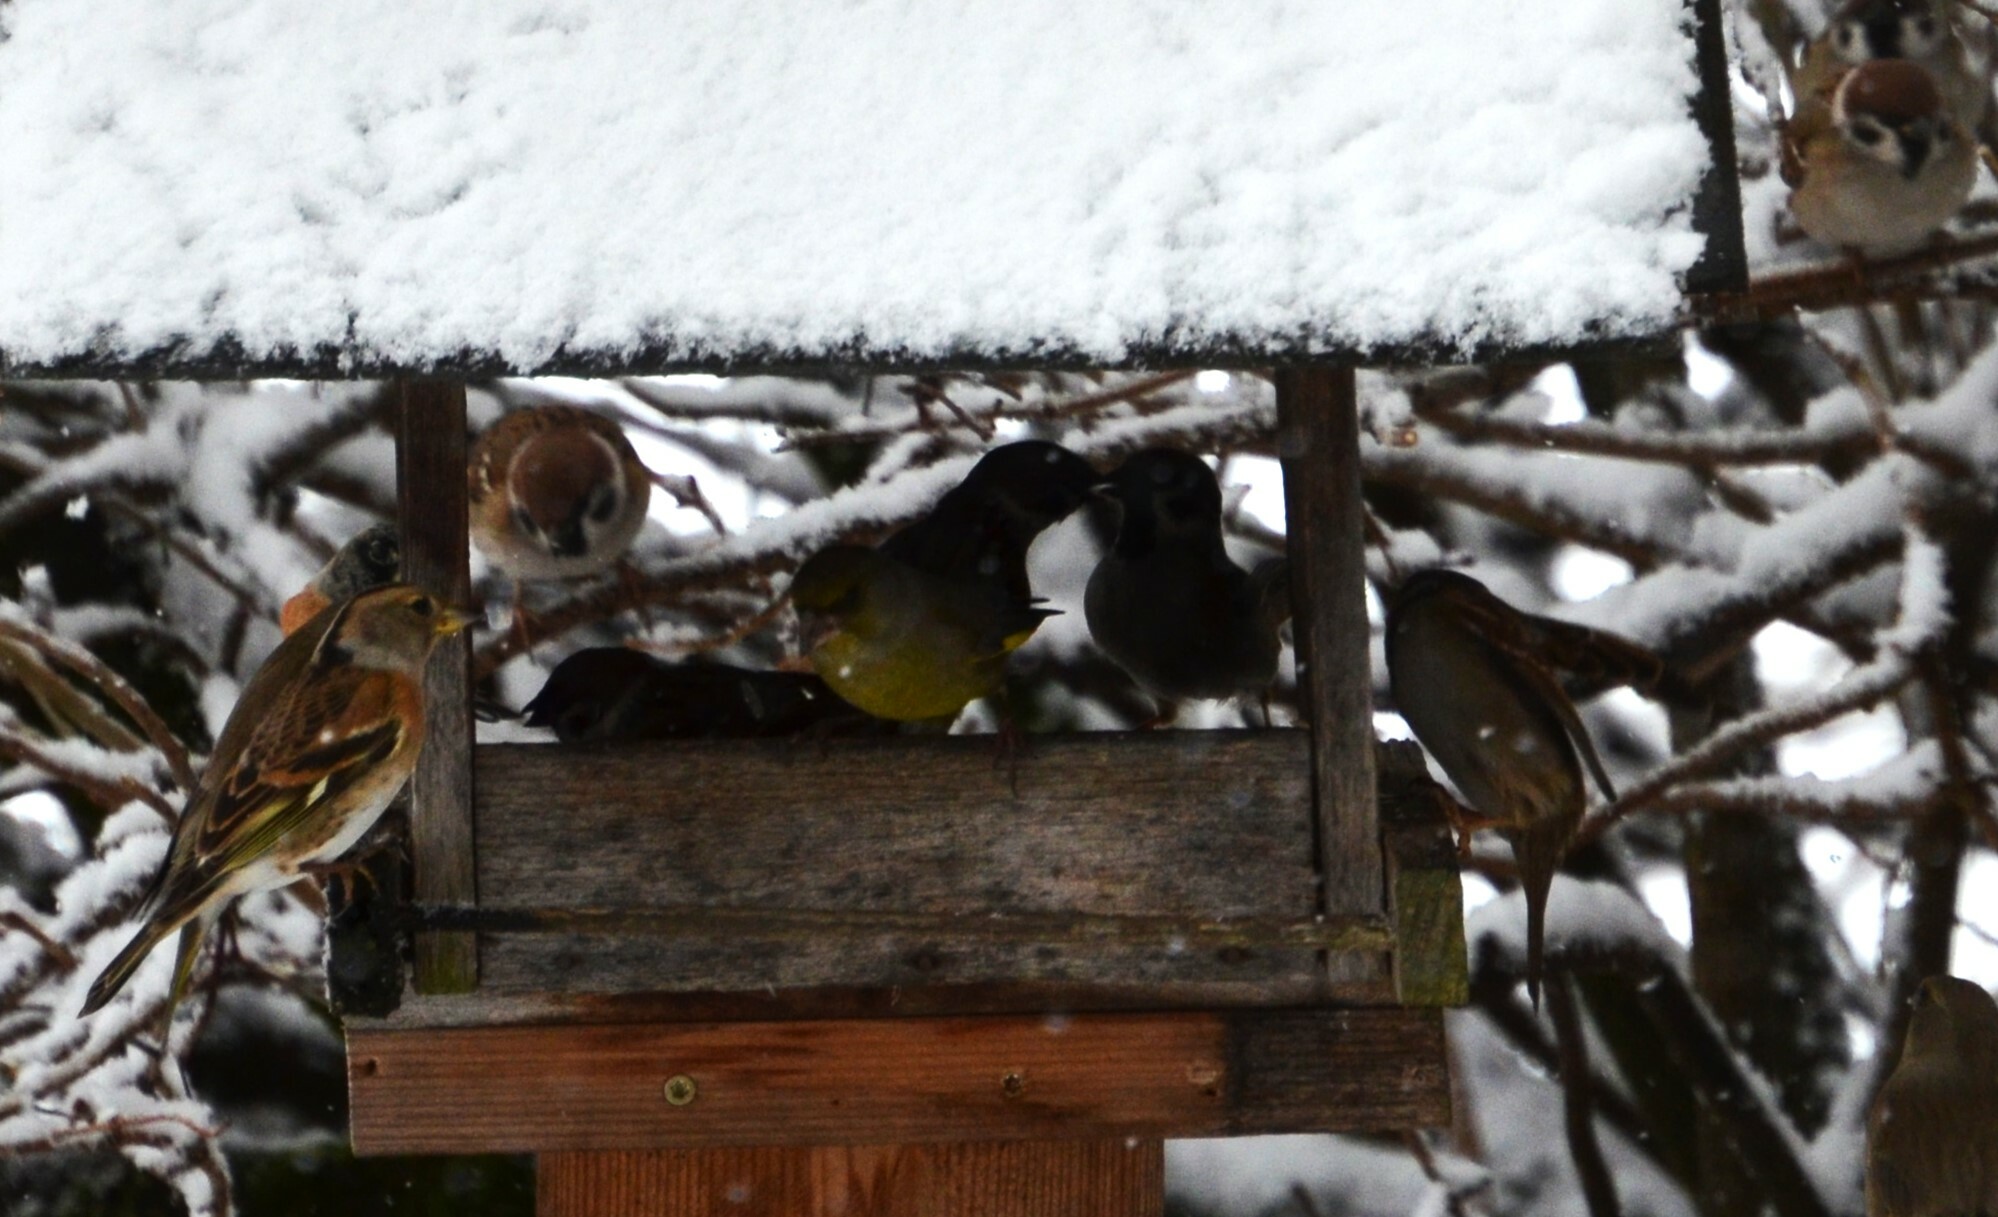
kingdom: Plantae
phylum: Tracheophyta
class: Liliopsida
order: Poales
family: Poaceae
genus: Chloris
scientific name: Chloris chloris
